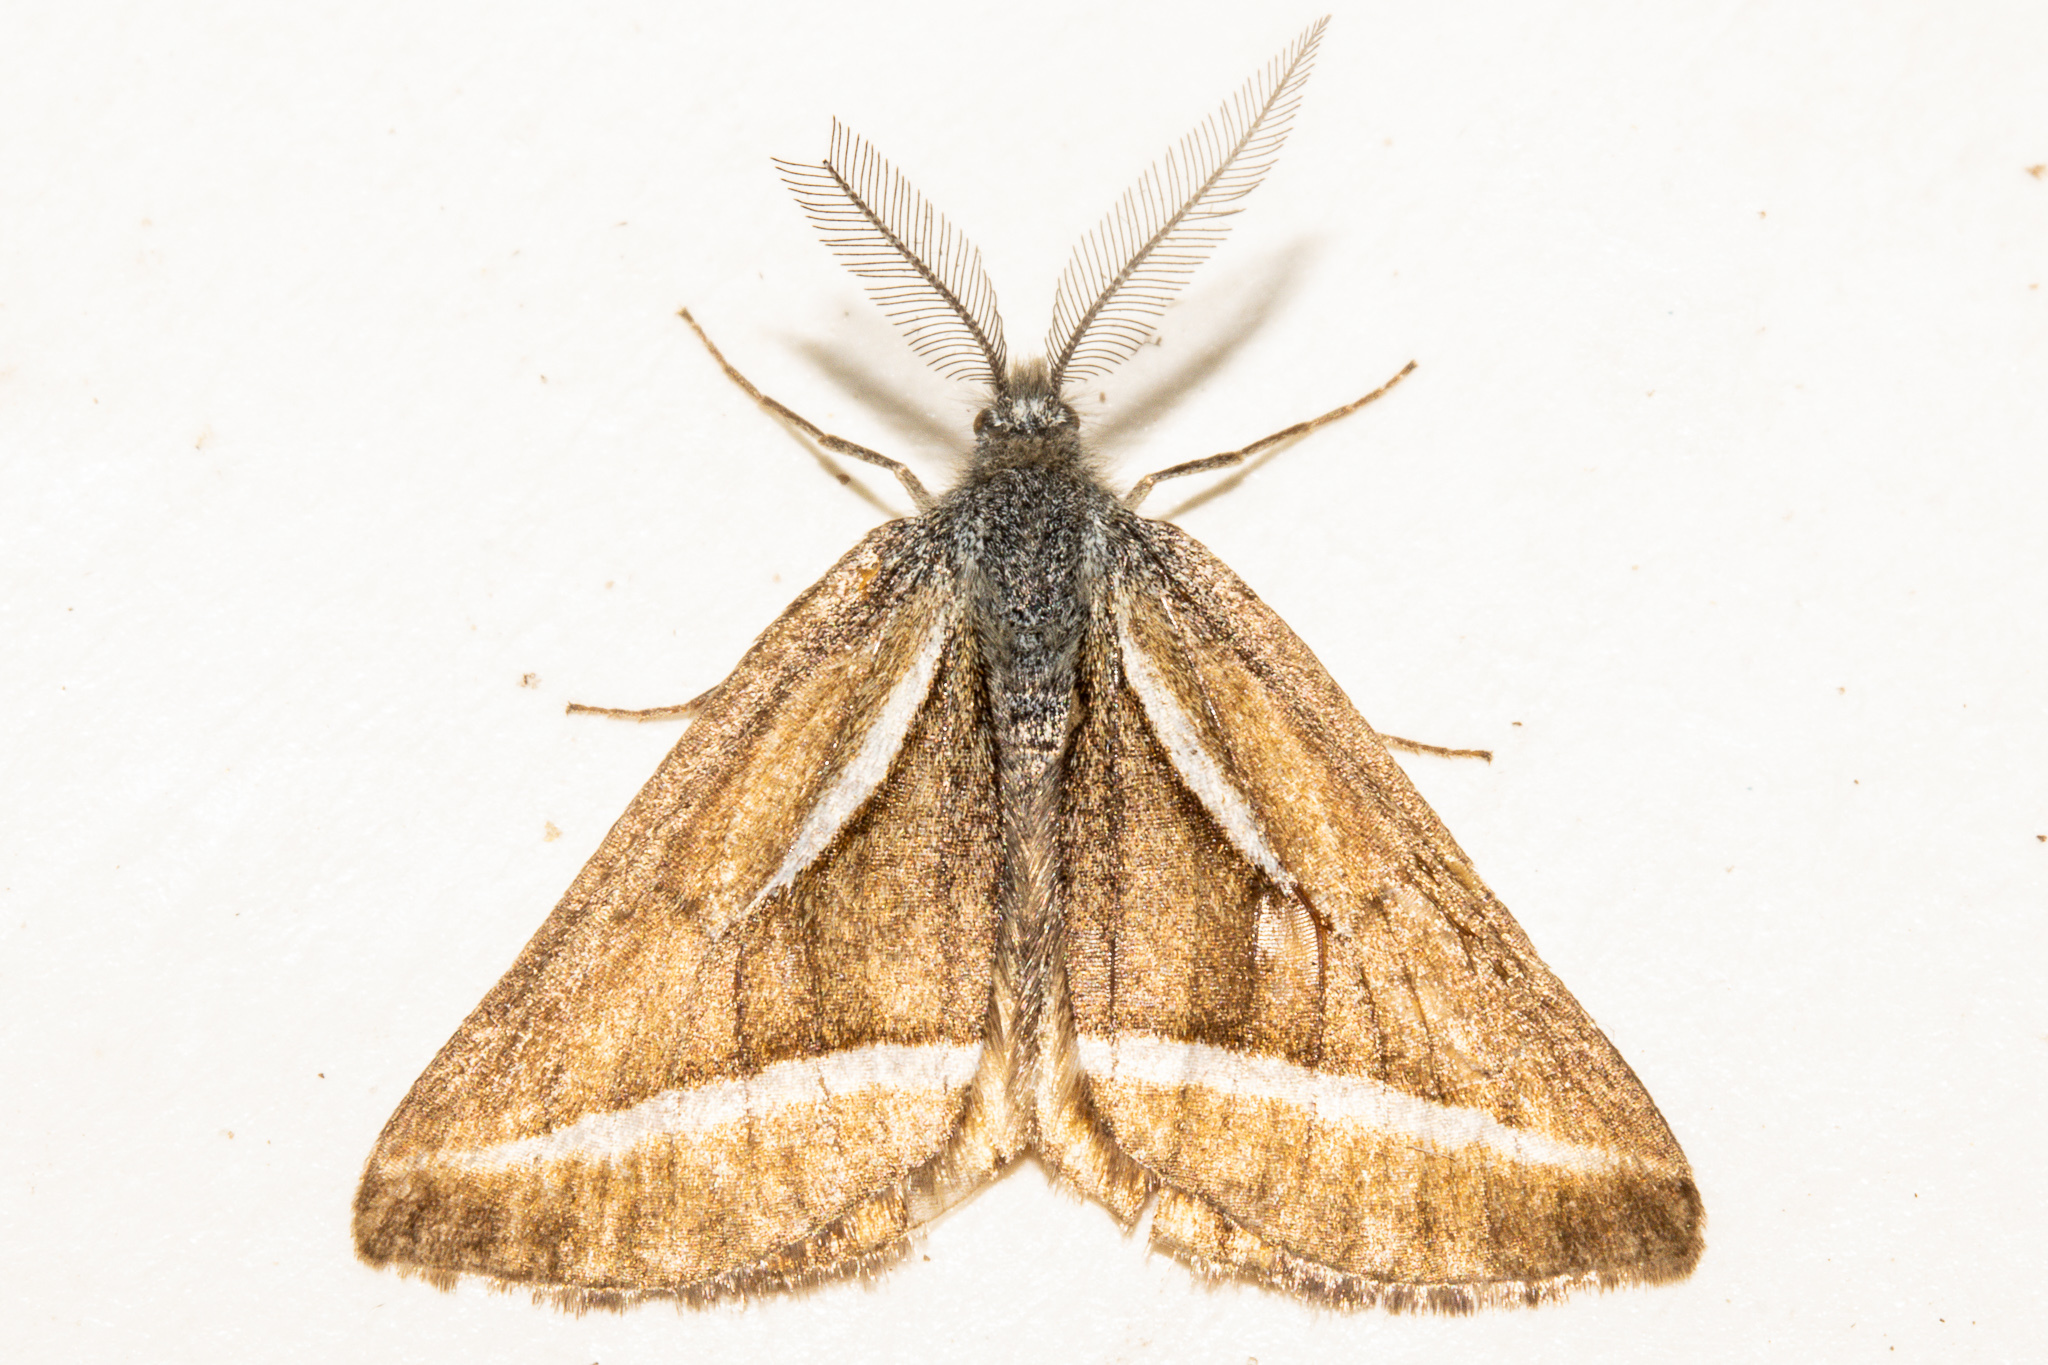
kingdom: Animalia
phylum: Arthropoda
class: Insecta
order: Lepidoptera
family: Geometridae
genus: Aponotoreas
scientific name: Aponotoreas insignis
